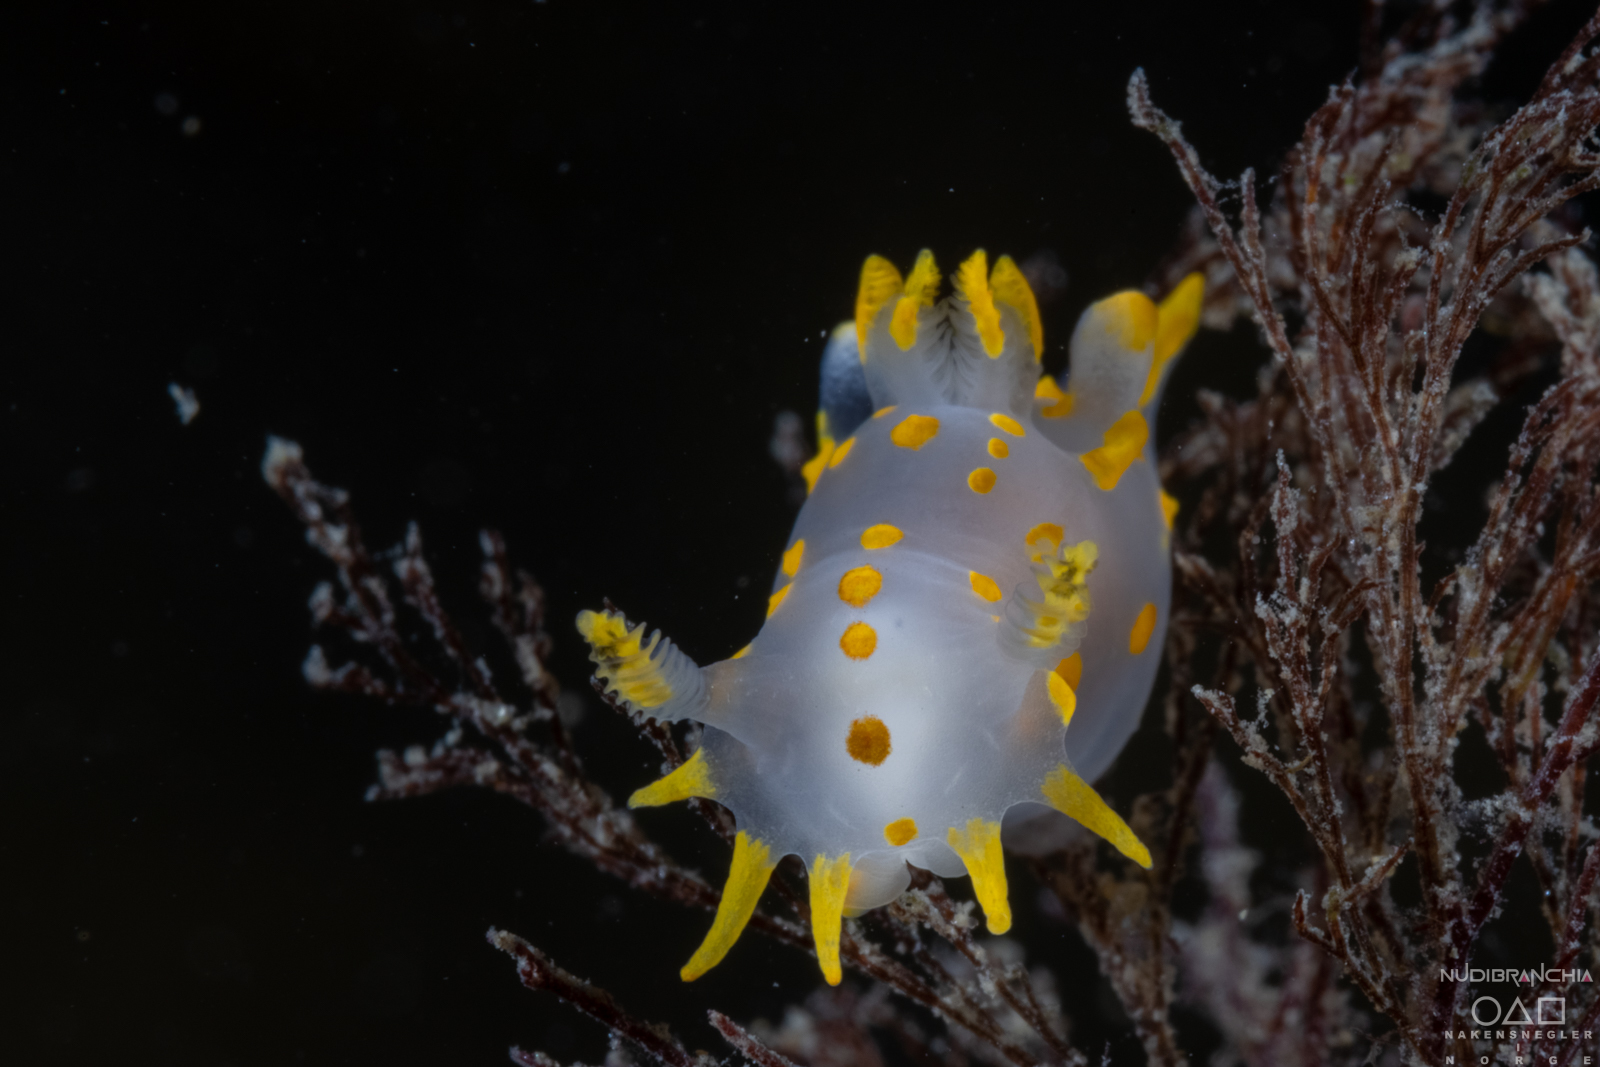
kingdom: Animalia
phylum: Mollusca
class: Gastropoda
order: Nudibranchia
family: Polyceridae
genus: Polycera
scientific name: Polycera quadrilineata
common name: Four-striped polycera
